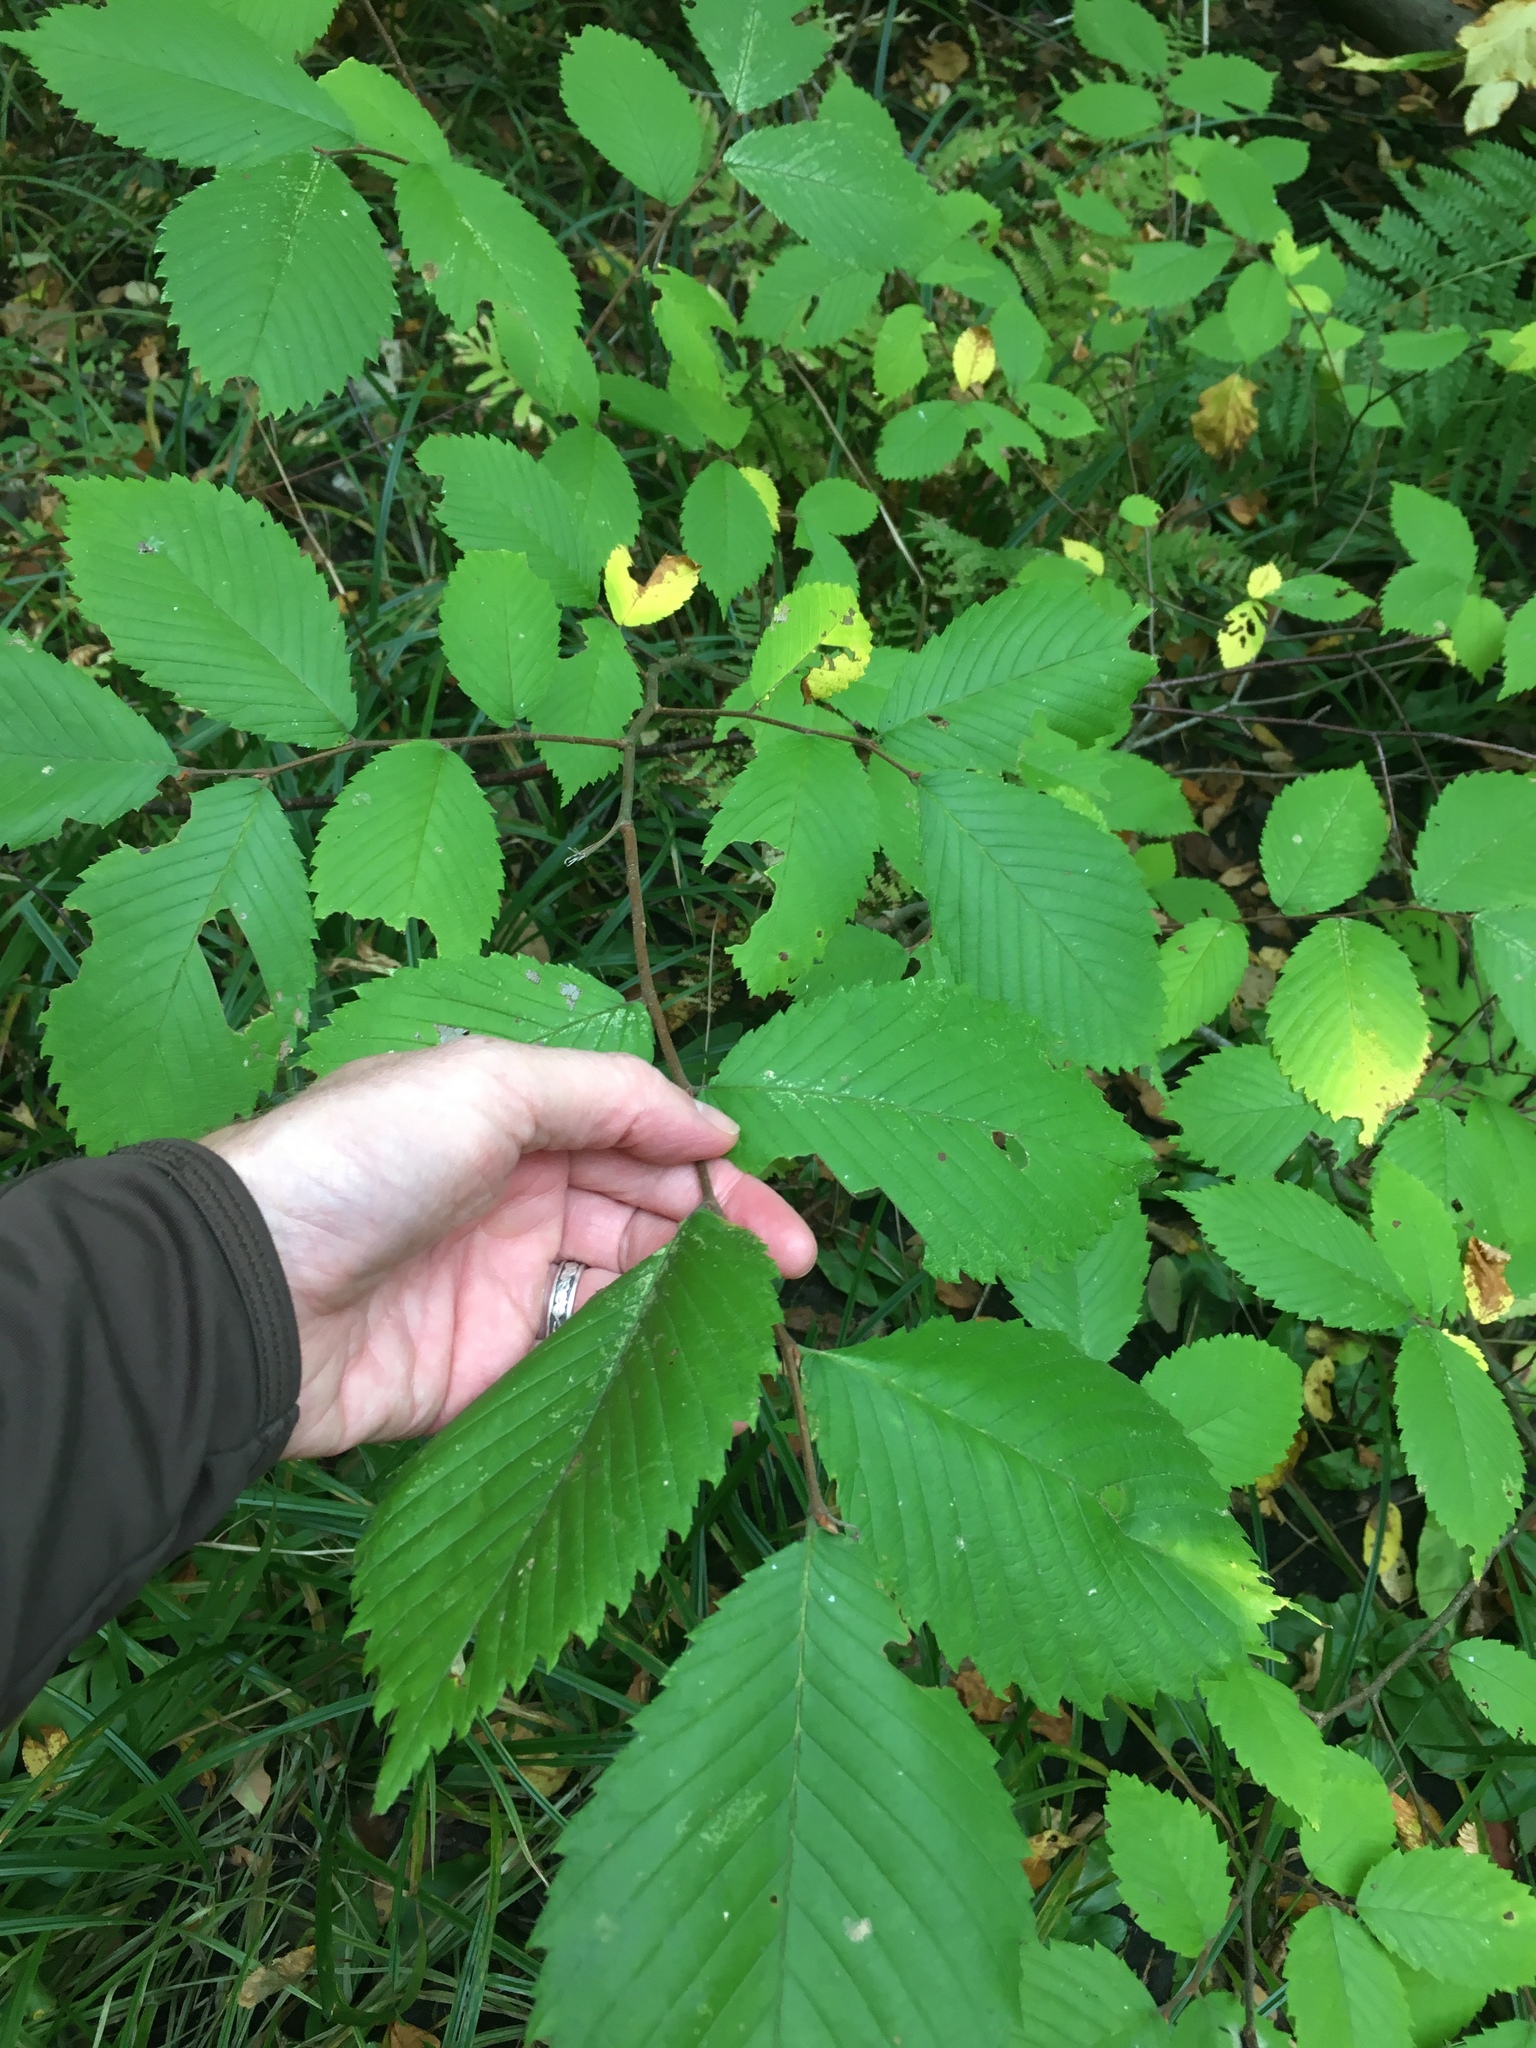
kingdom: Plantae
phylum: Tracheophyta
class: Magnoliopsida
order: Rosales
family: Ulmaceae
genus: Ulmus
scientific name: Ulmus americana
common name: American elm
